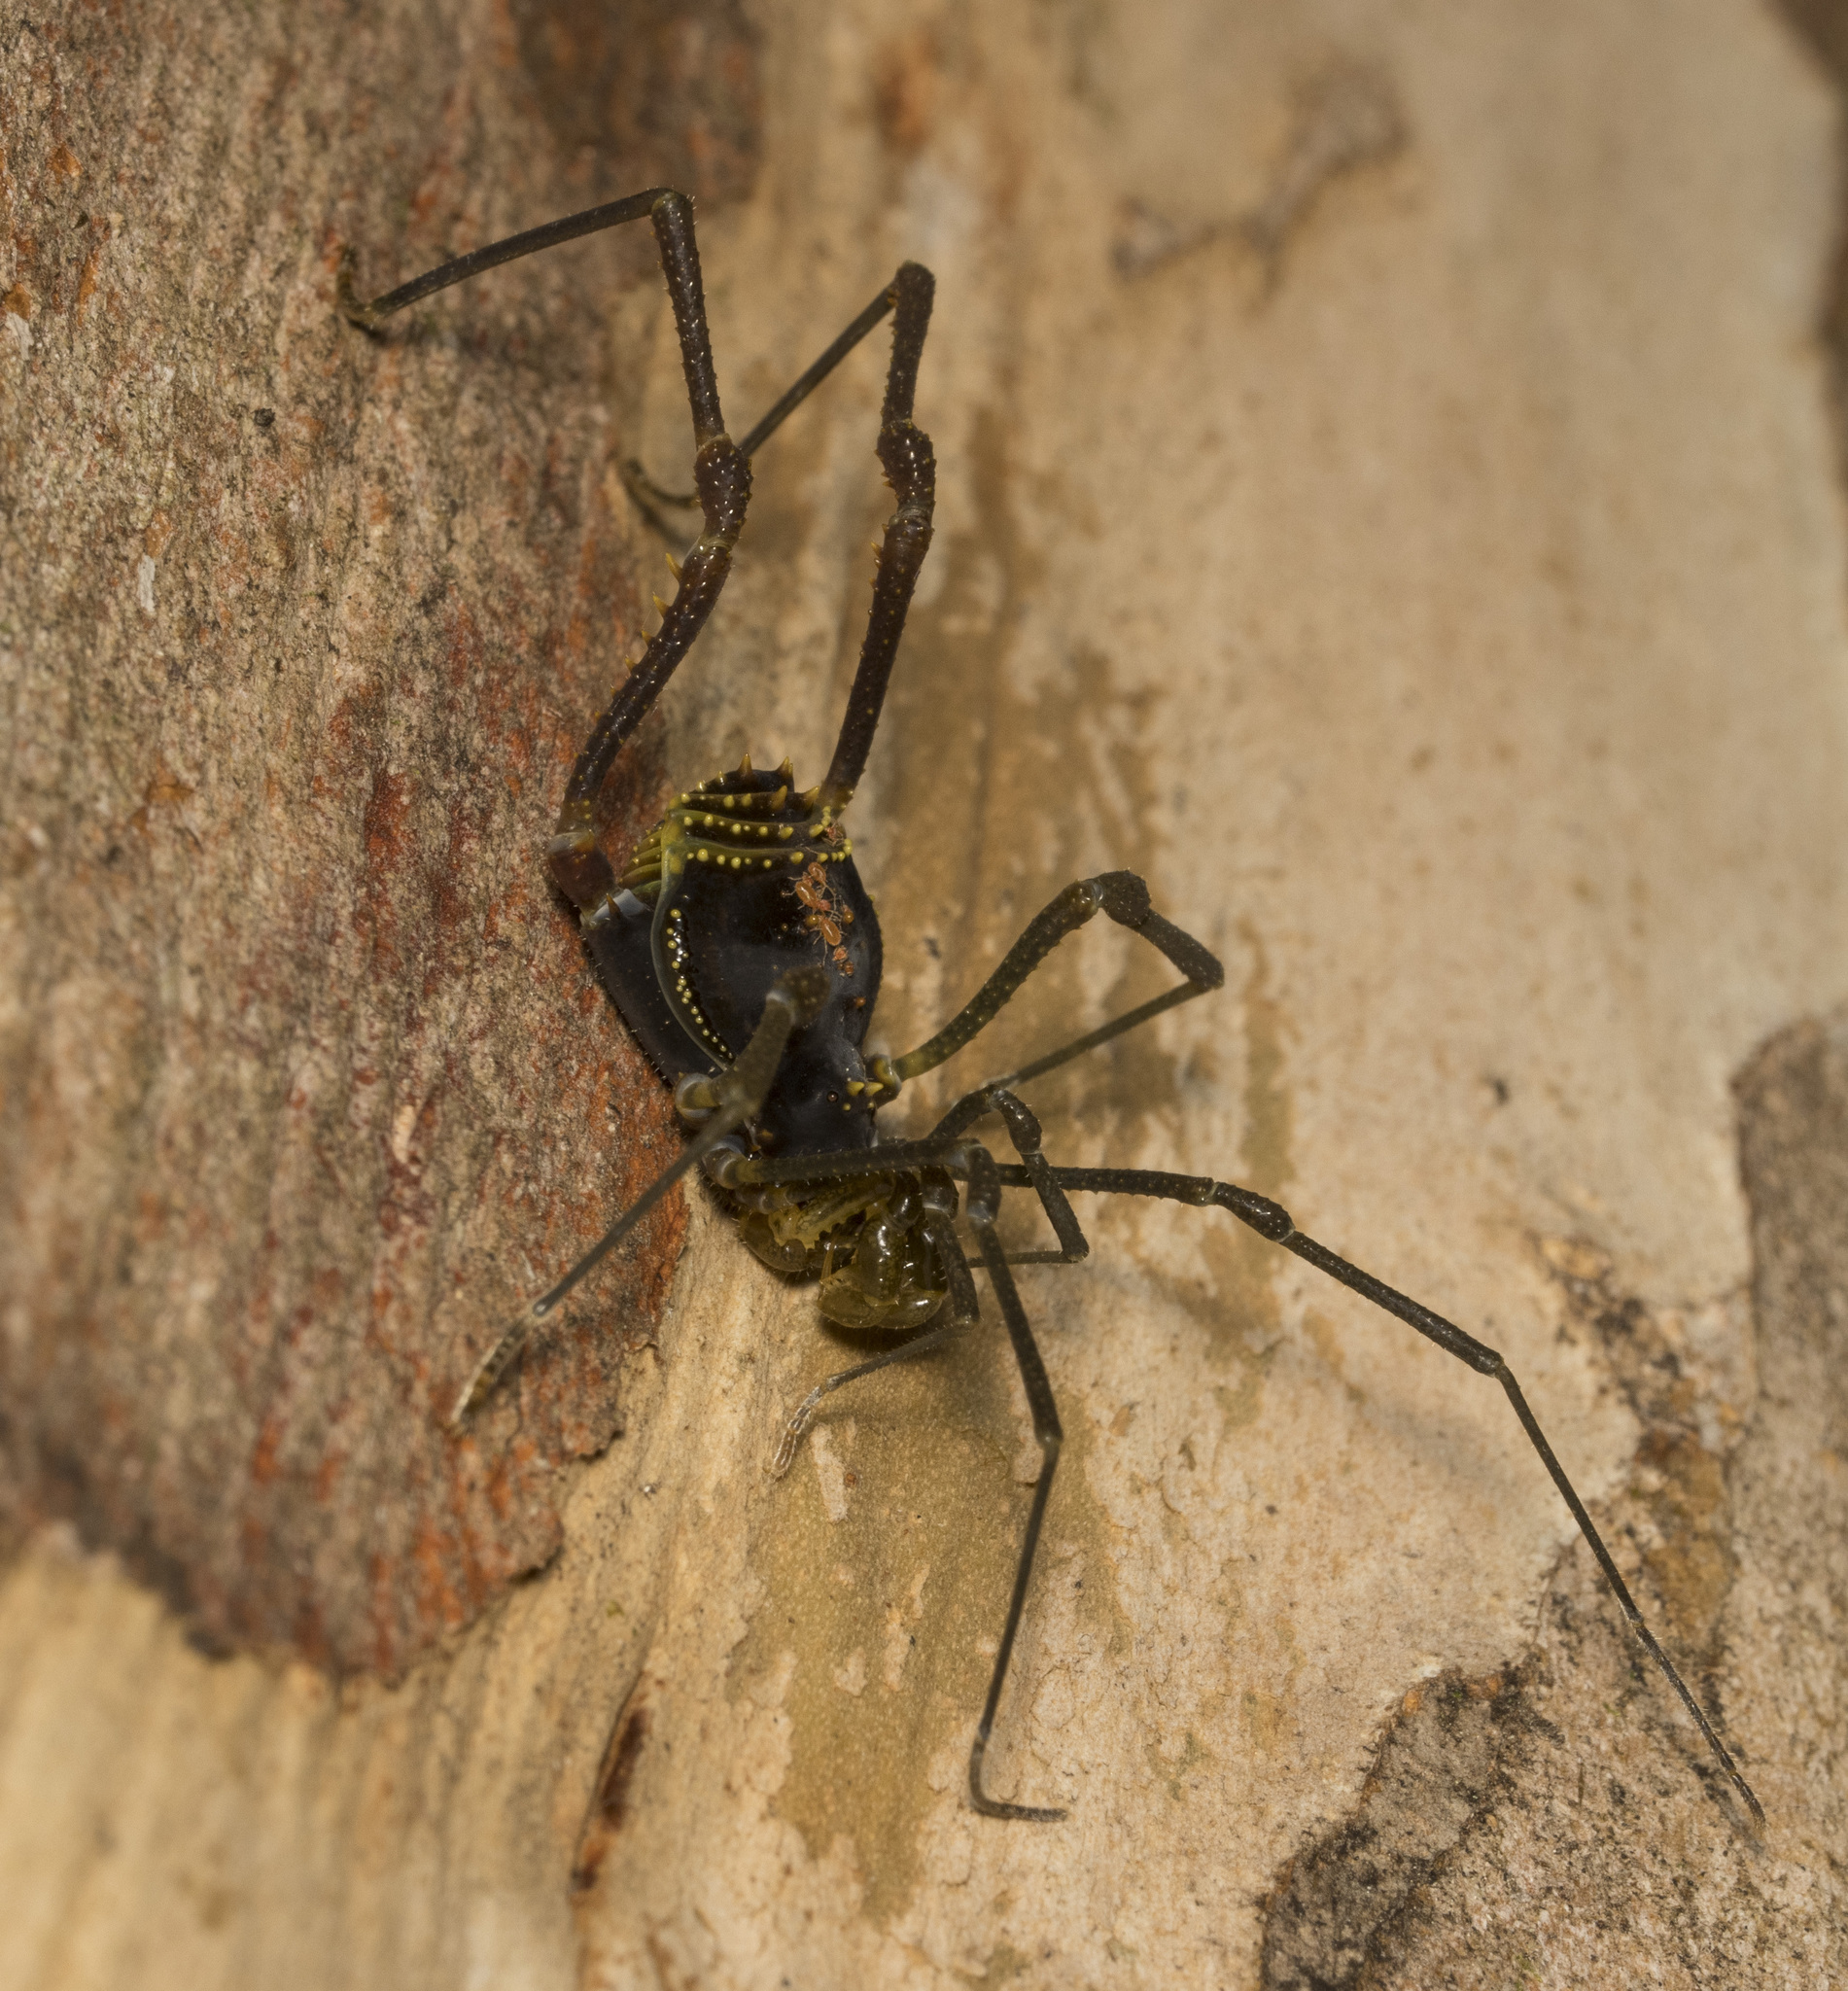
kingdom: Animalia
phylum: Arthropoda
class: Arachnida
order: Opiliones
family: Gonyleptidae
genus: Sadocus
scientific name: Sadocus funestus
